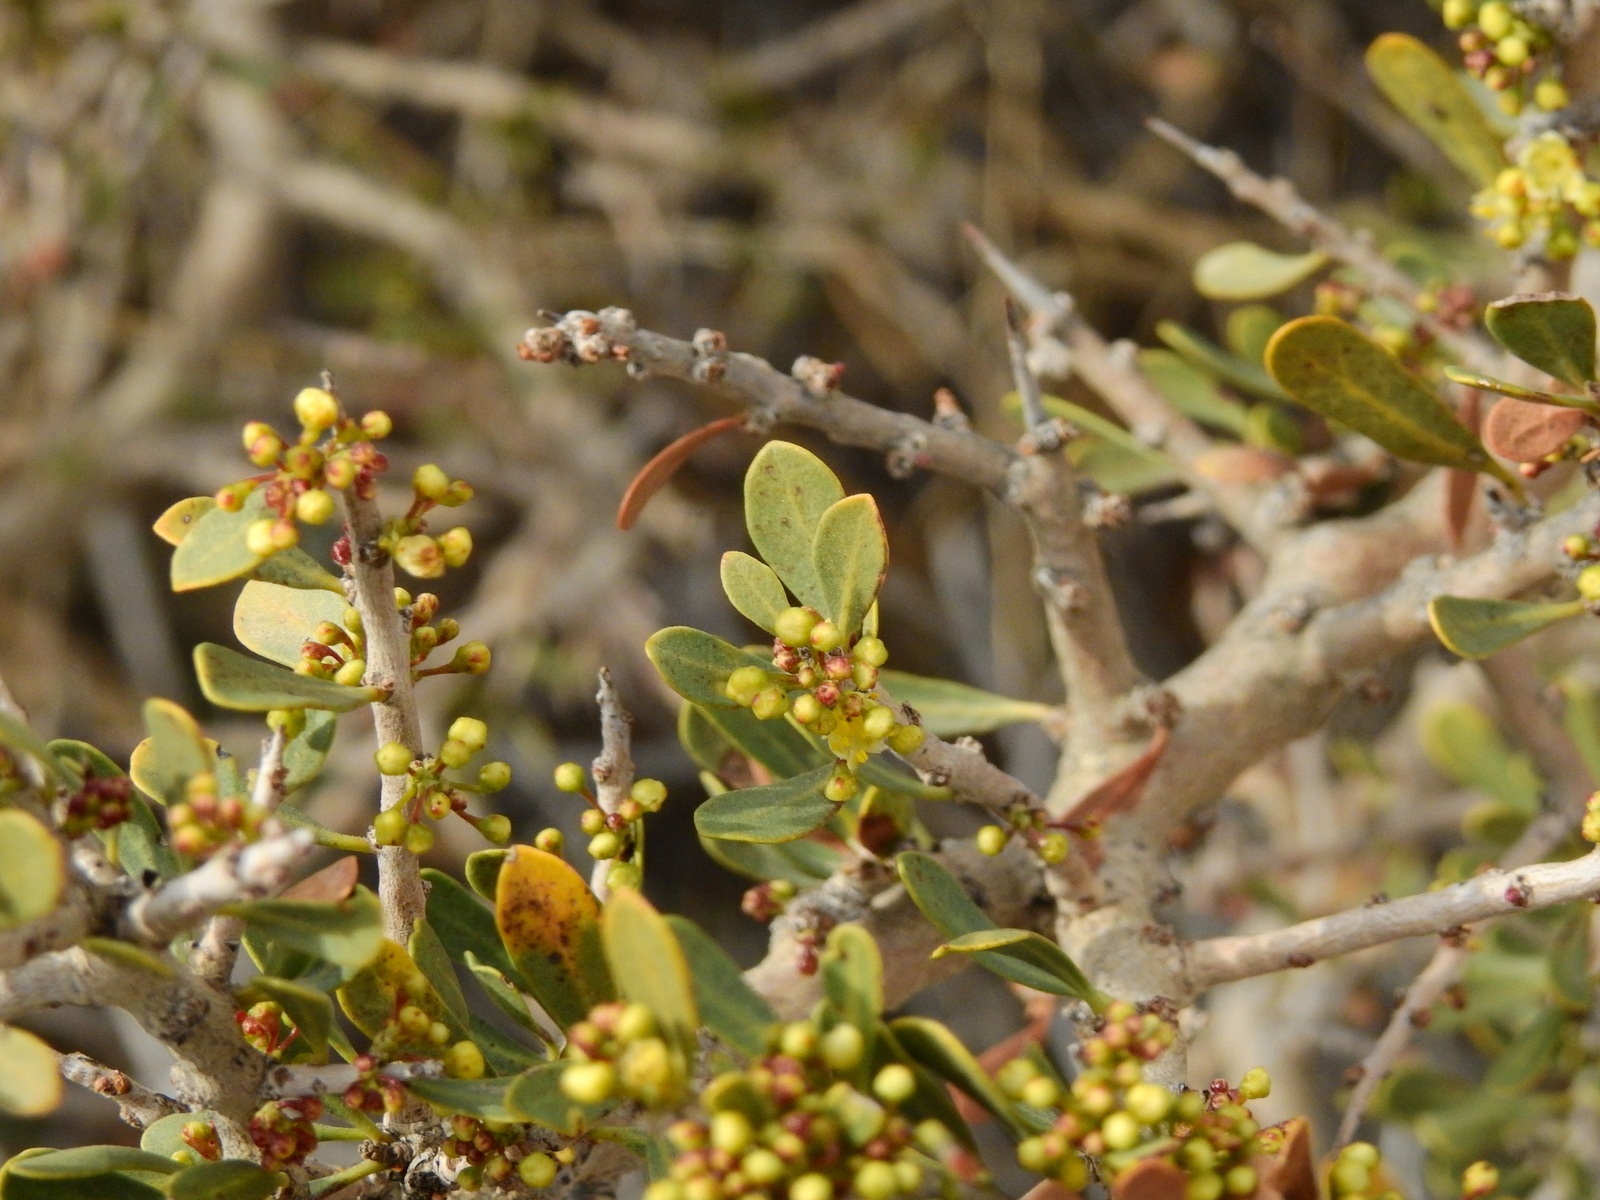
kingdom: Plantae
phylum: Tracheophyta
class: Magnoliopsida
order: Sapindales
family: Anacardiaceae
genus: Schinus
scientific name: Schinus johnstonii
